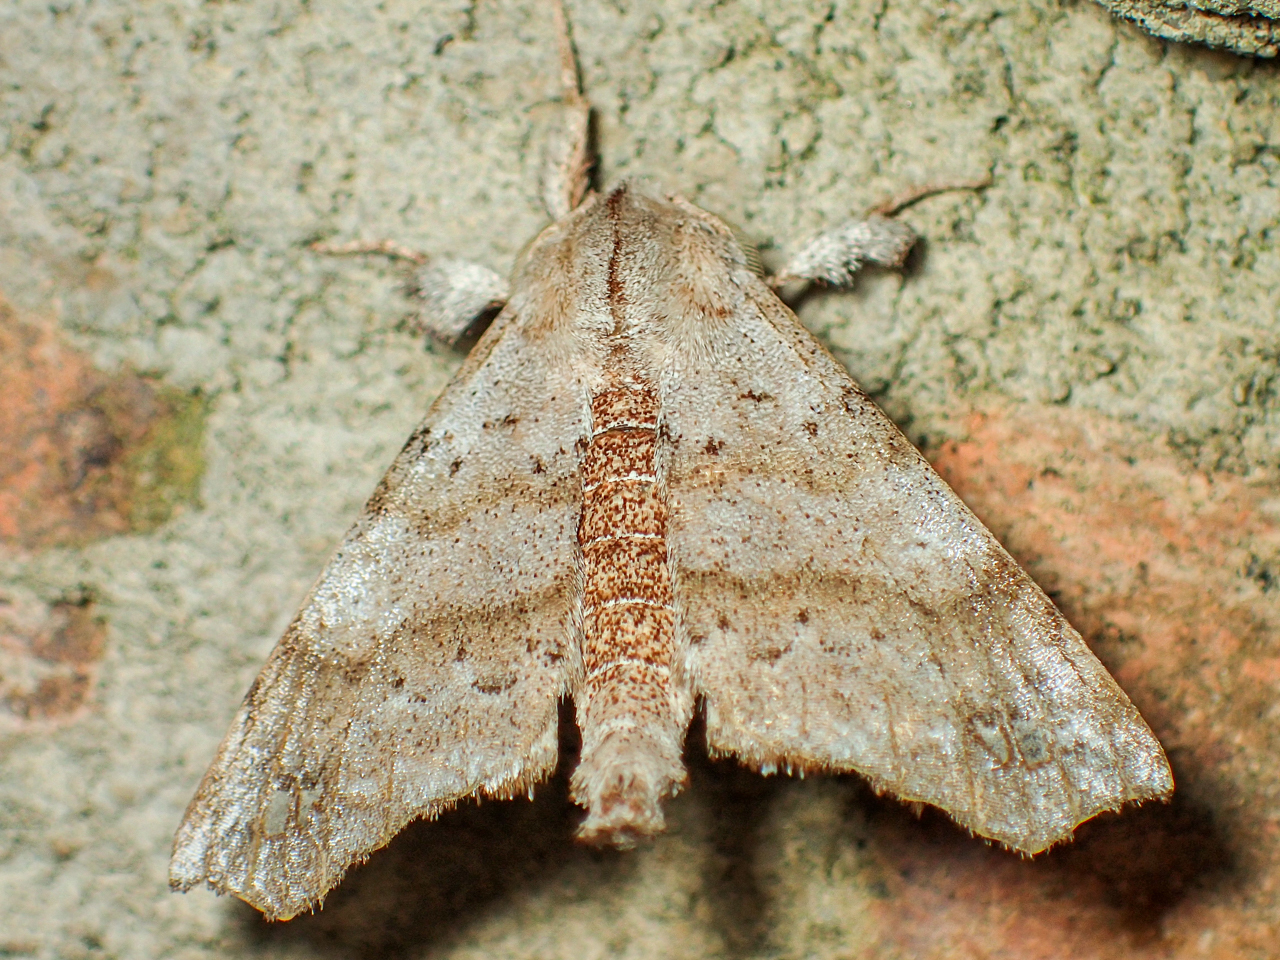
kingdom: Animalia
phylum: Arthropoda
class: Insecta
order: Lepidoptera
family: Apatelodidae
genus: Olceclostera
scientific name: Olceclostera angelica
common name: Angel moth
